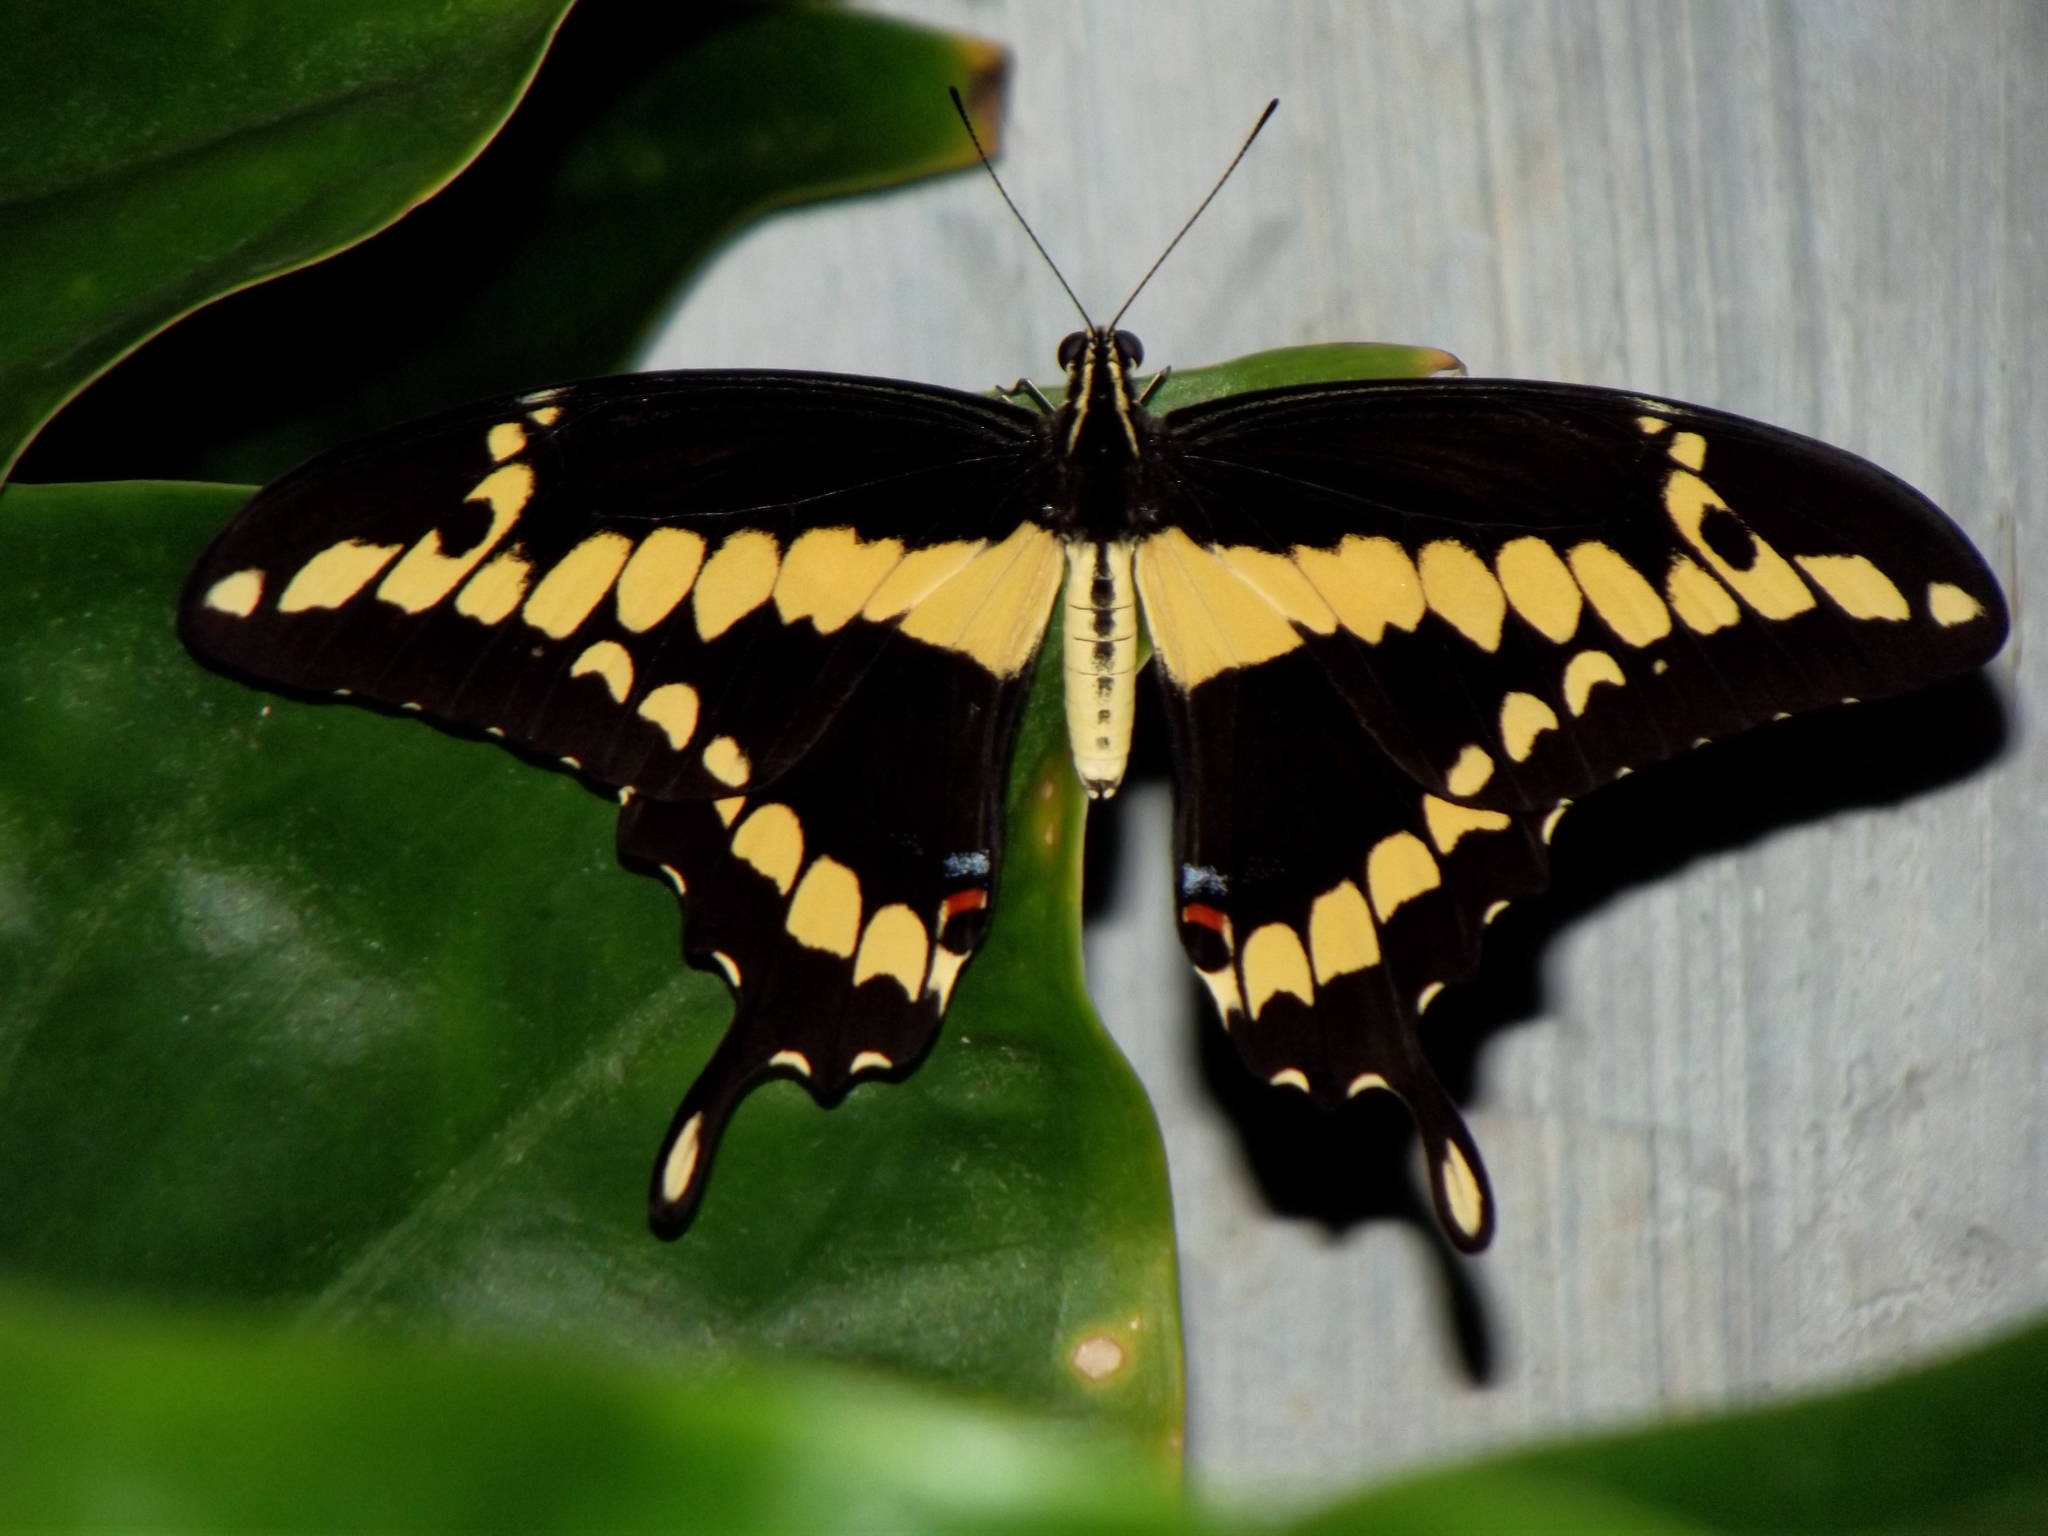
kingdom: Animalia
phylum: Arthropoda
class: Insecta
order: Lepidoptera
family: Papilionidae
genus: Papilio
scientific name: Papilio rumiko
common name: Western giant swallowtail
